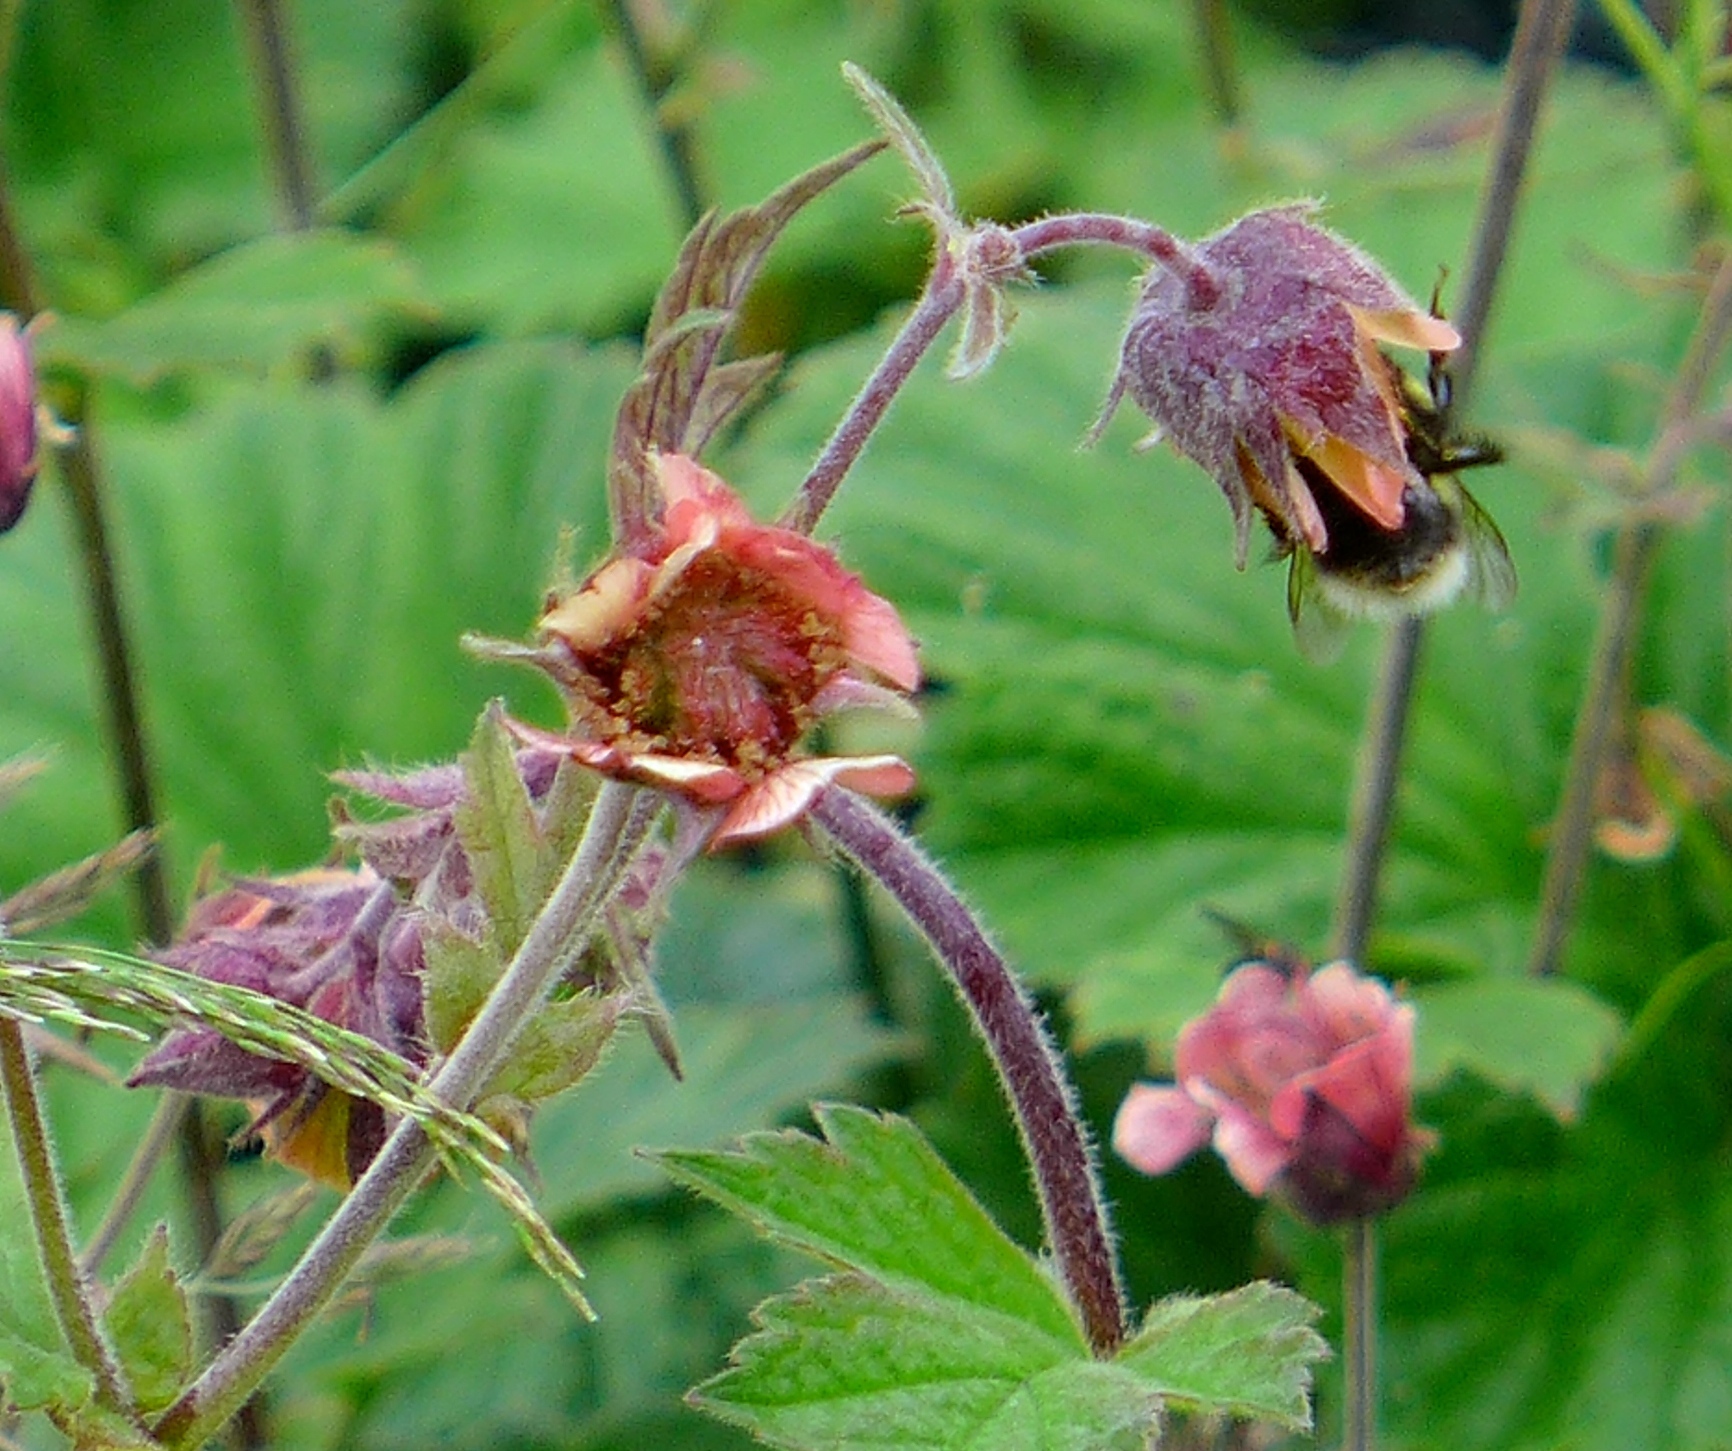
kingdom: Plantae
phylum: Tracheophyta
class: Magnoliopsida
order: Rosales
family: Rosaceae
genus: Geum
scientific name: Geum rivale
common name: Water avens
